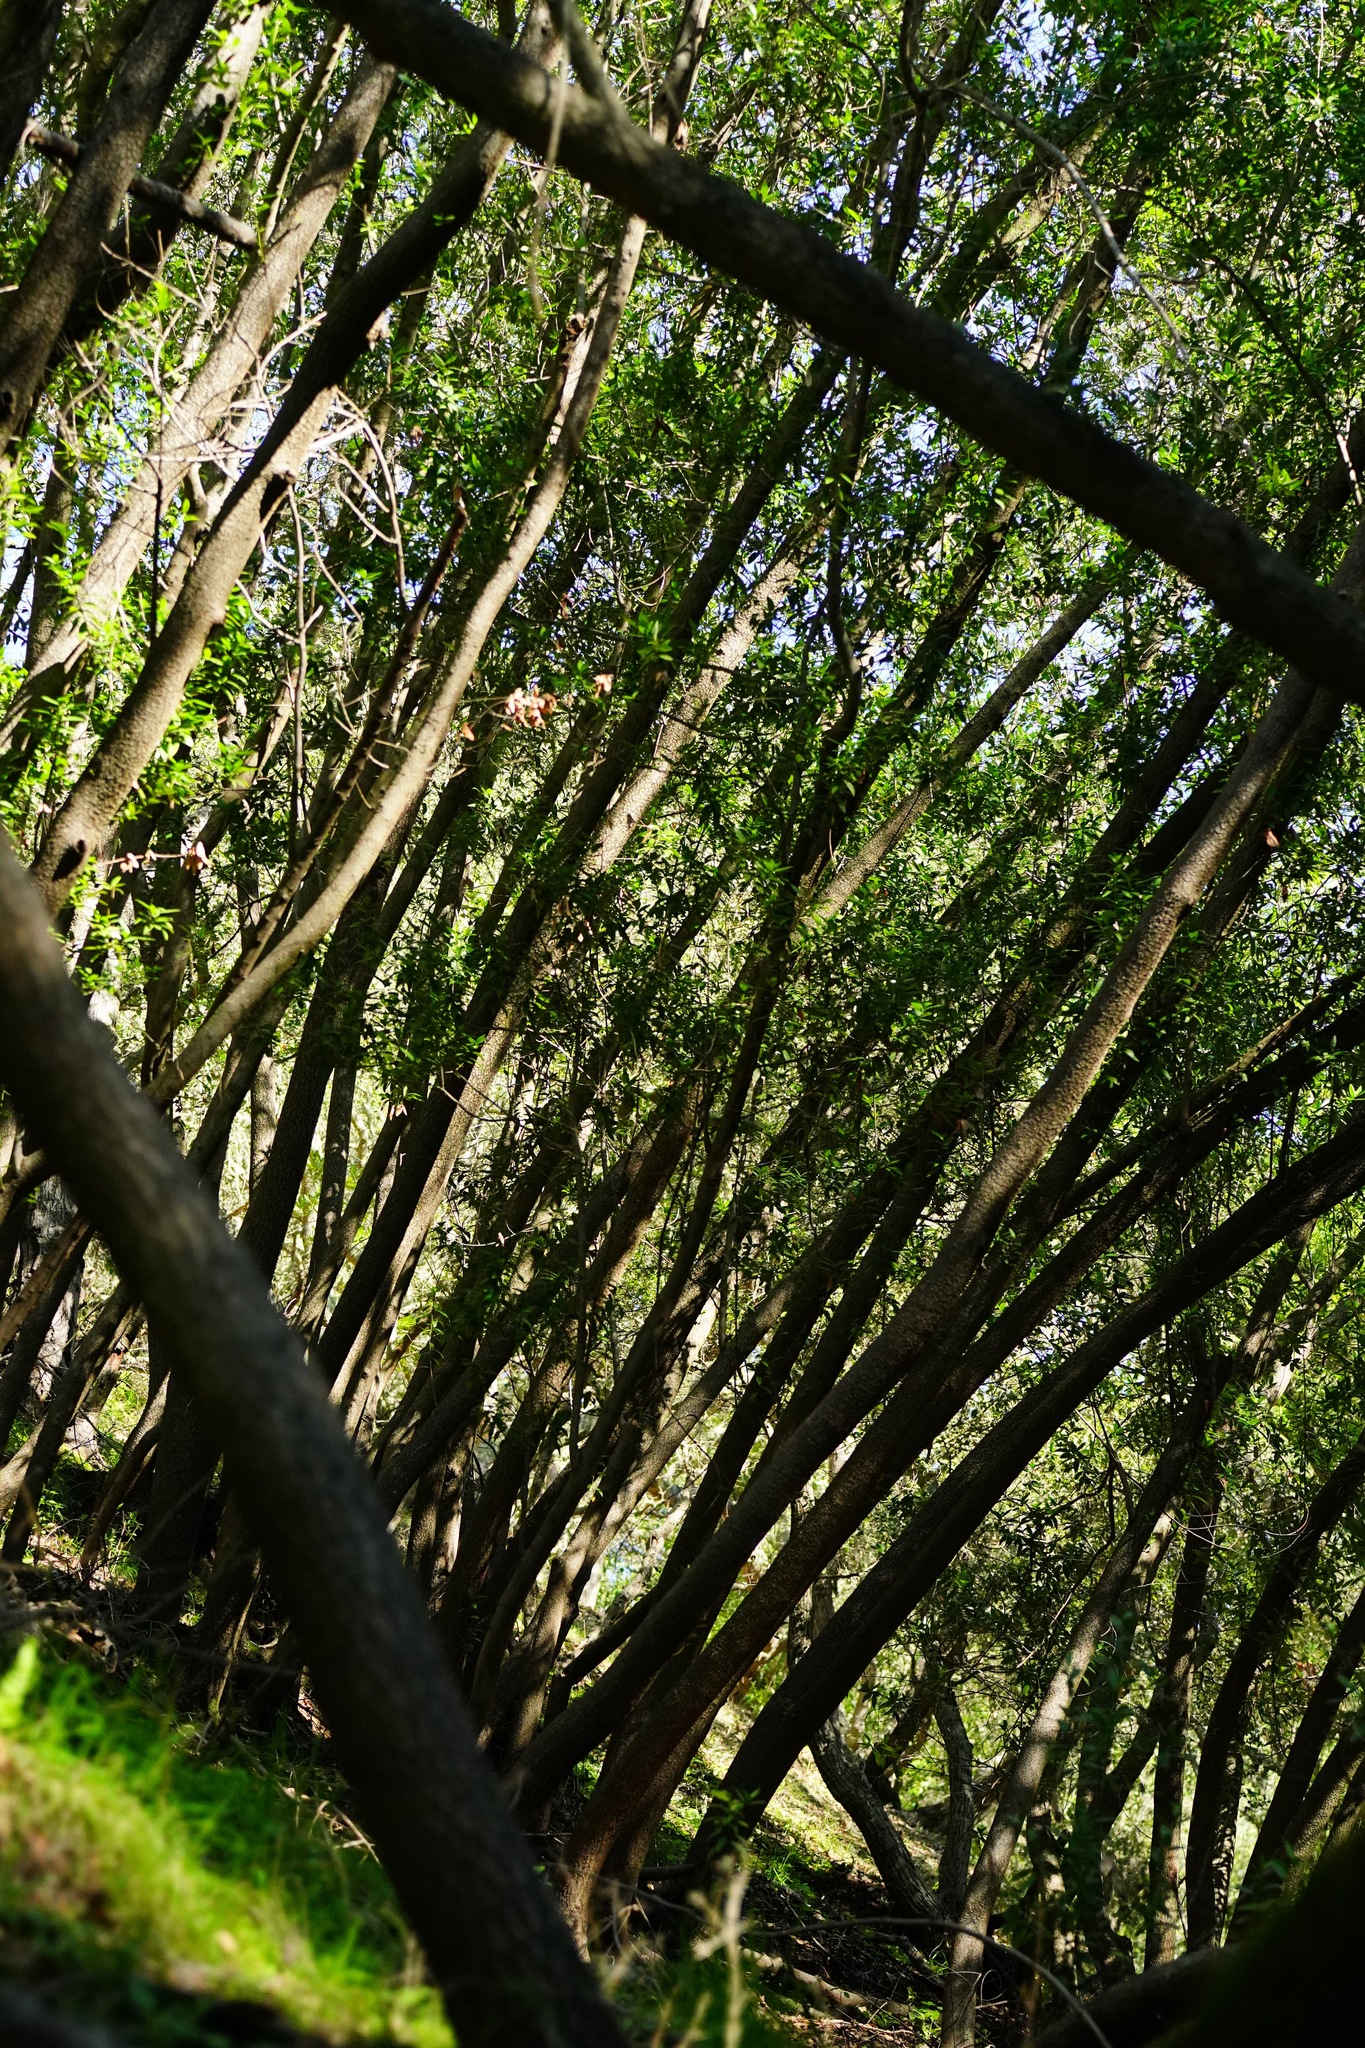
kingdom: Plantae
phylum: Tracheophyta
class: Magnoliopsida
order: Laurales
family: Lauraceae
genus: Umbellularia
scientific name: Umbellularia californica
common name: California bay
